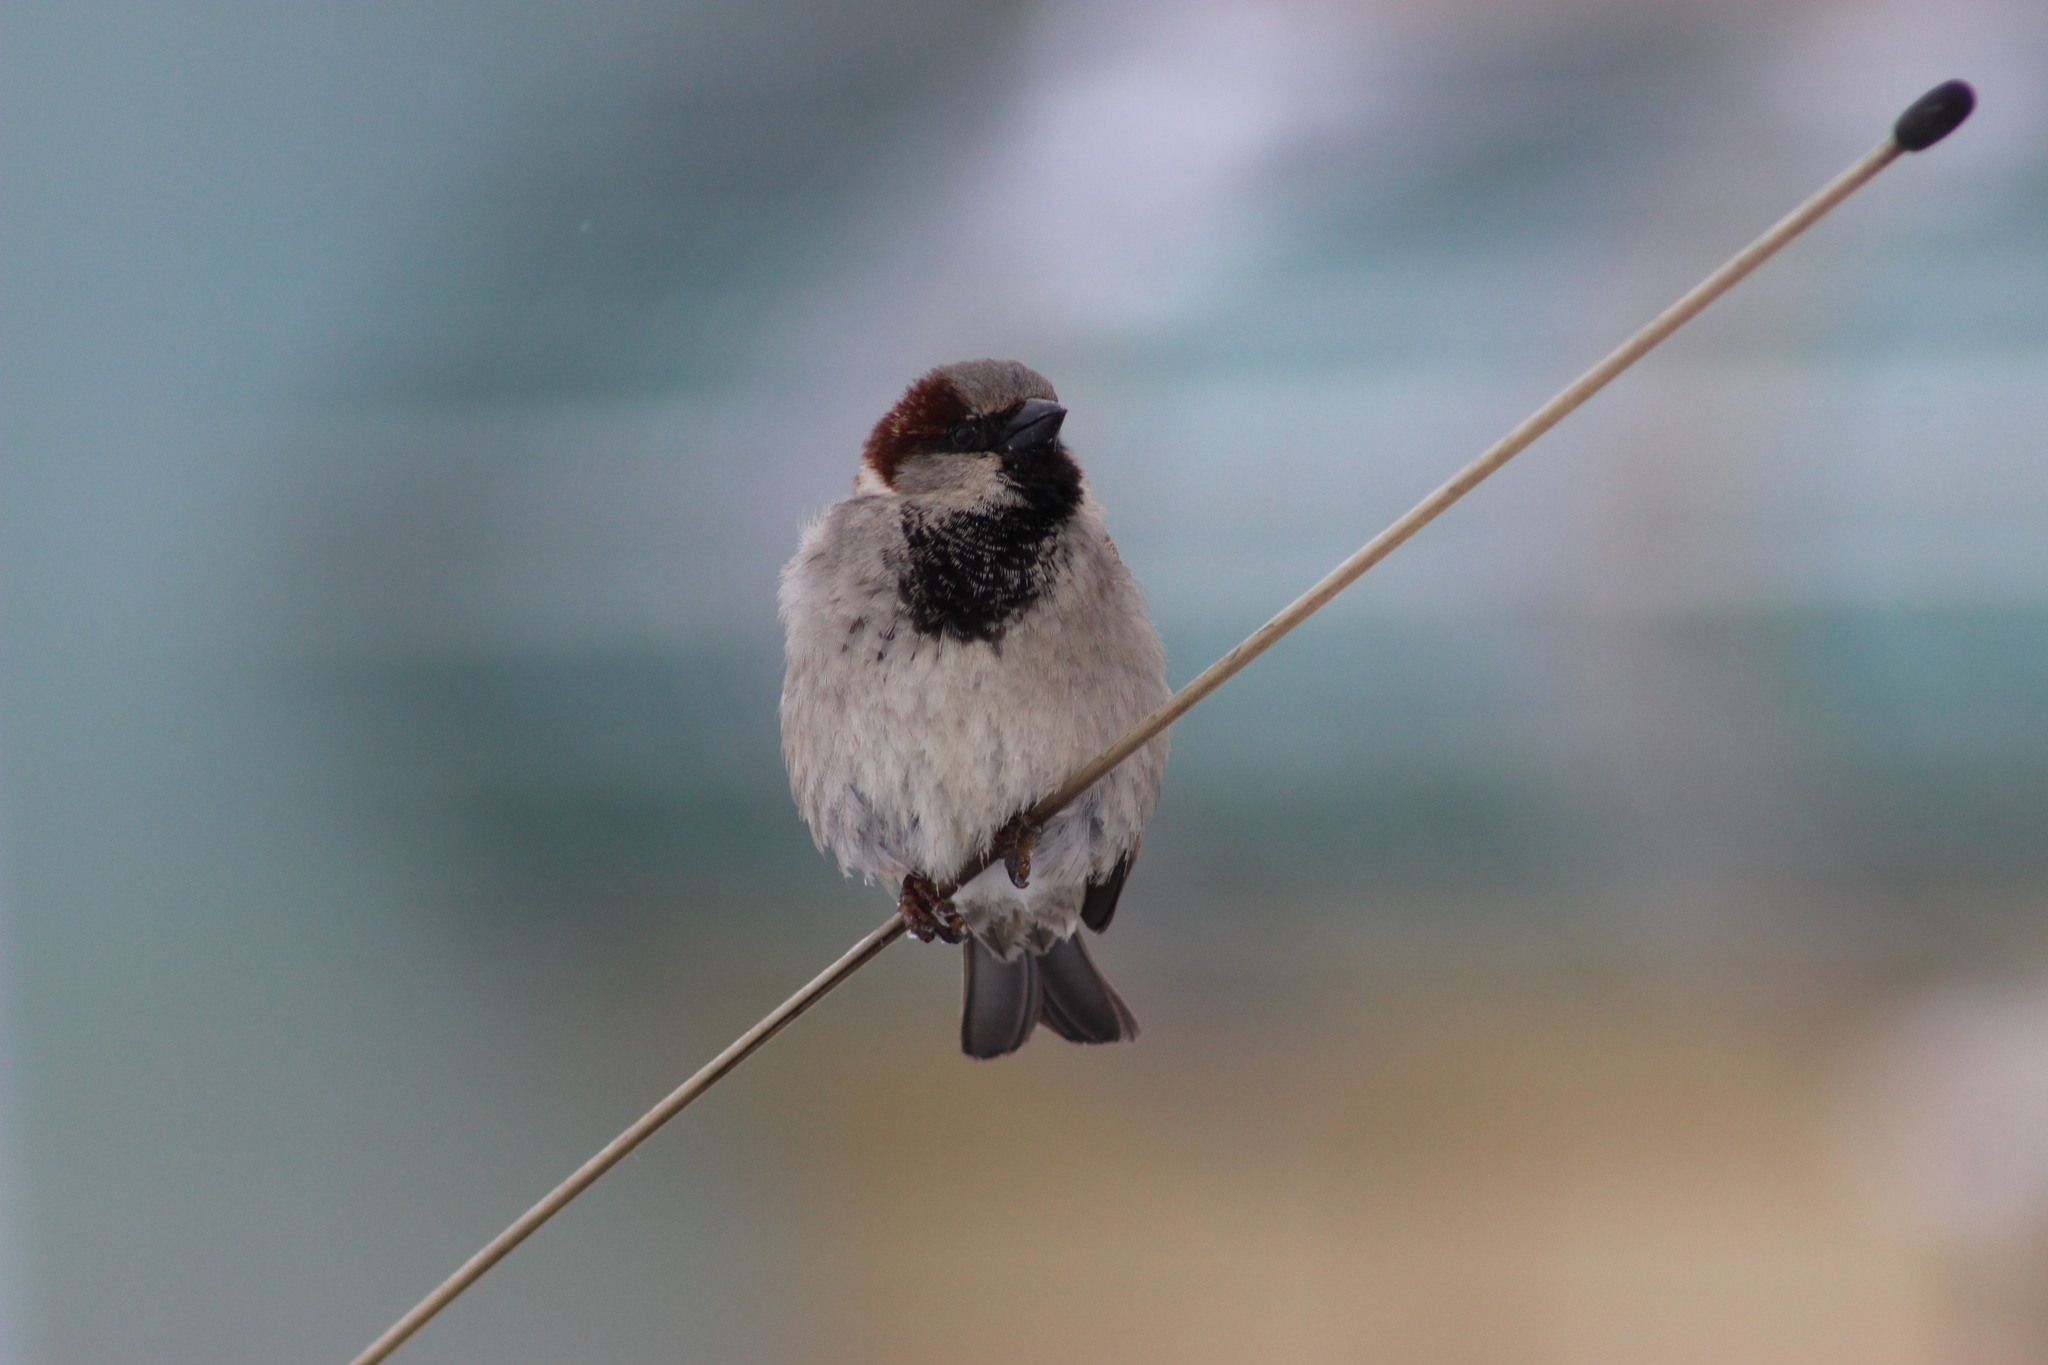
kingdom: Animalia
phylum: Chordata
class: Aves
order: Passeriformes
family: Passeridae
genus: Passer
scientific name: Passer domesticus
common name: House sparrow
